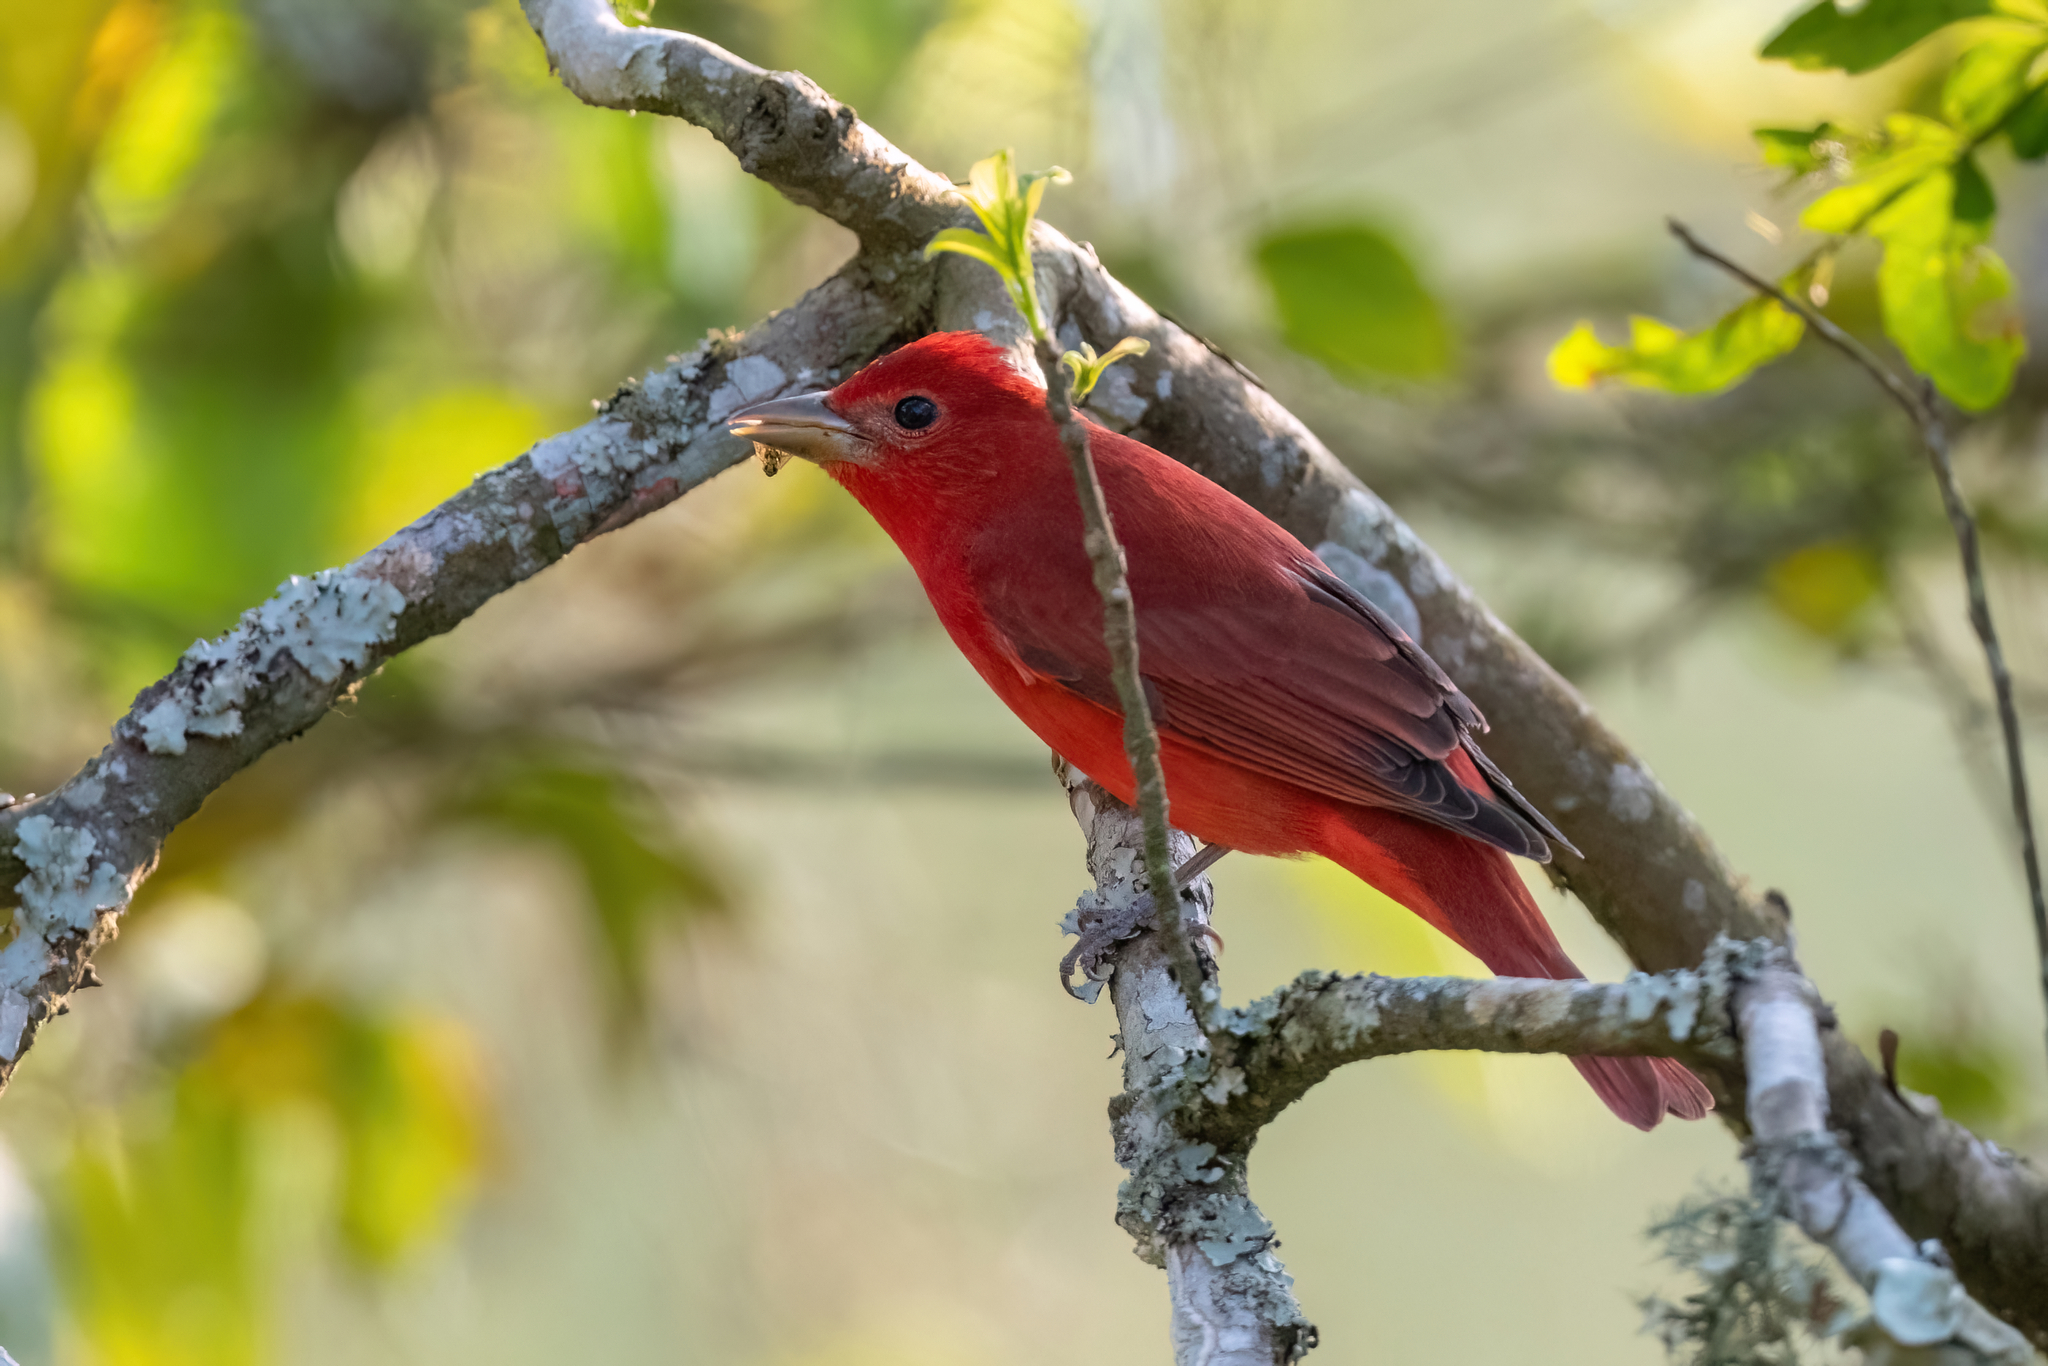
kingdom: Animalia
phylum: Chordata
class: Aves
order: Passeriformes
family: Cardinalidae
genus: Piranga
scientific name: Piranga rubra
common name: Summer tanager
